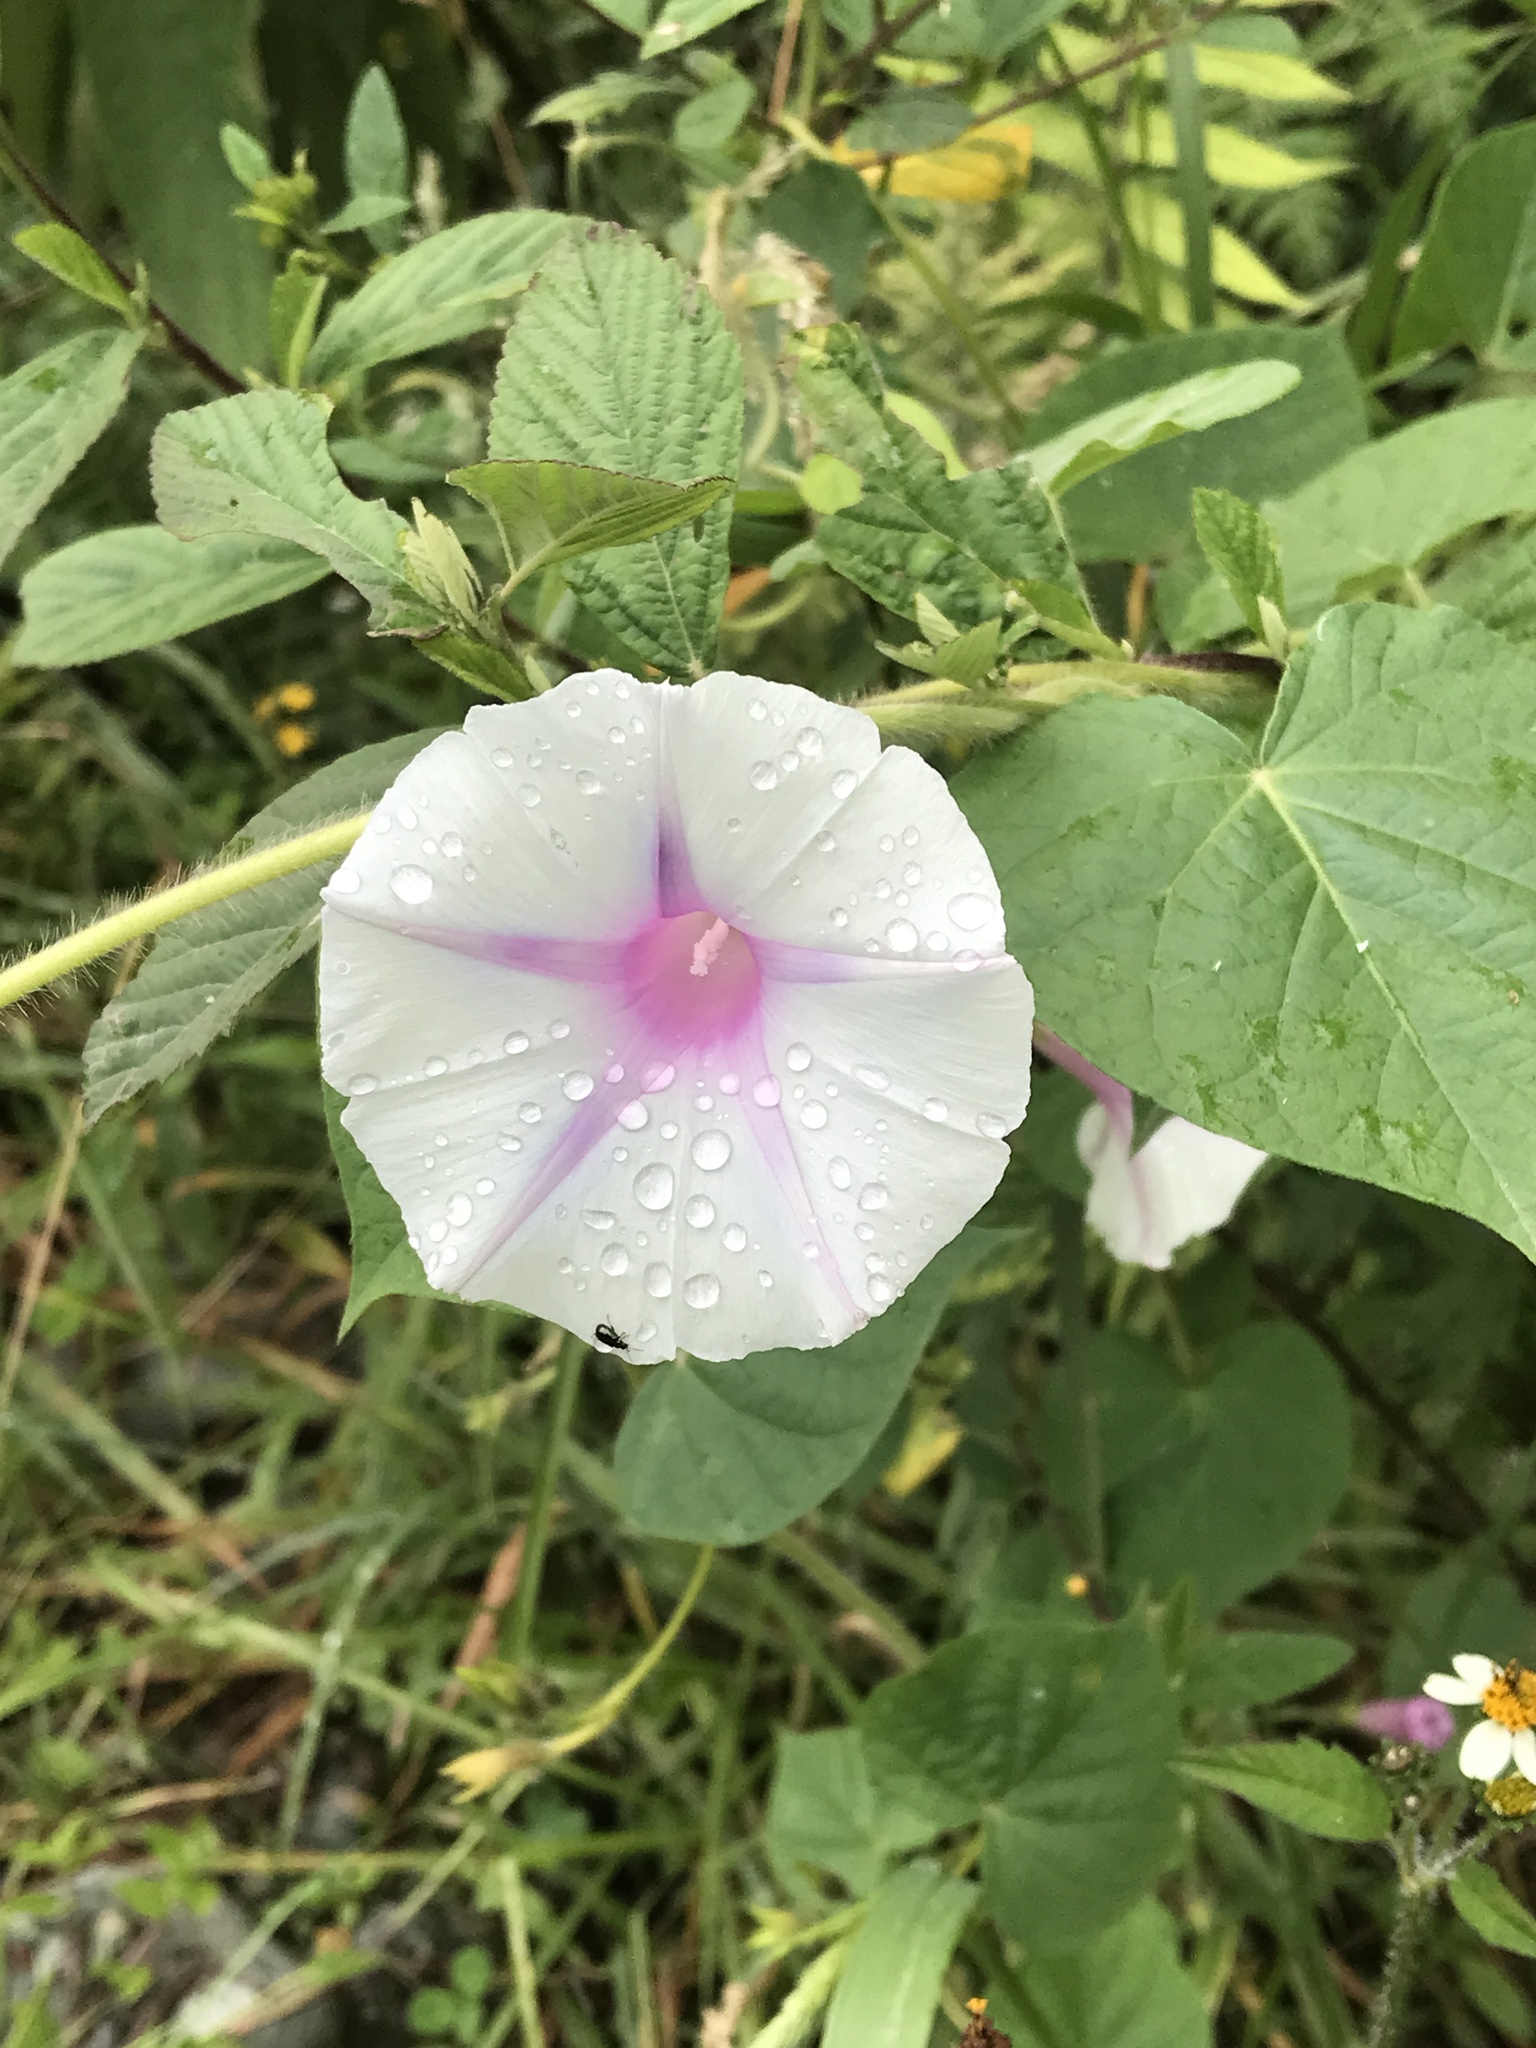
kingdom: Plantae
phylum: Tracheophyta
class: Magnoliopsida
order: Solanales
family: Convolvulaceae
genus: Ipomoea
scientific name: Ipomoea purpurea
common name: Common morning-glory
